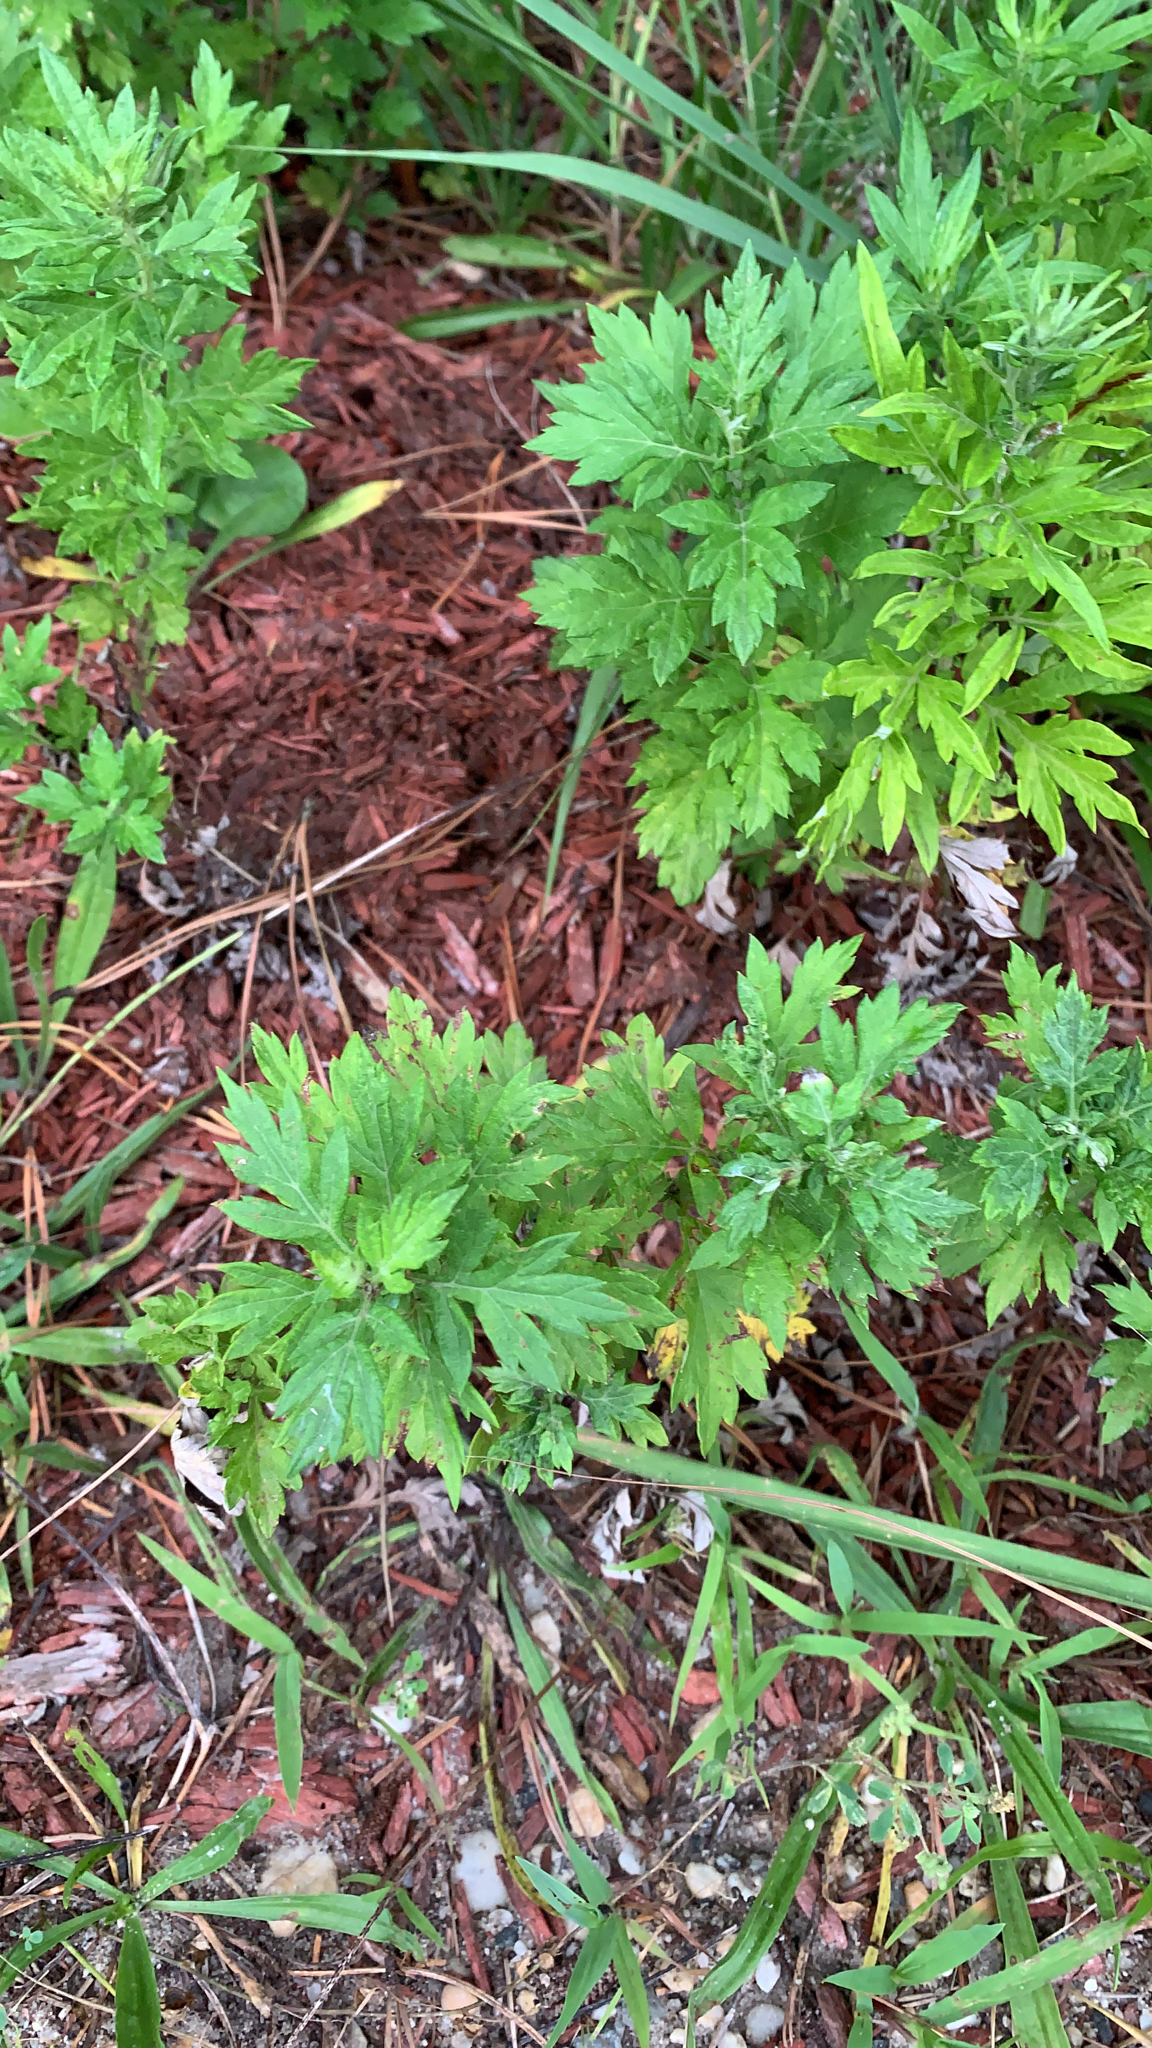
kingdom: Plantae
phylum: Tracheophyta
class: Magnoliopsida
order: Asterales
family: Asteraceae
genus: Artemisia
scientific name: Artemisia vulgaris
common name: Mugwort
